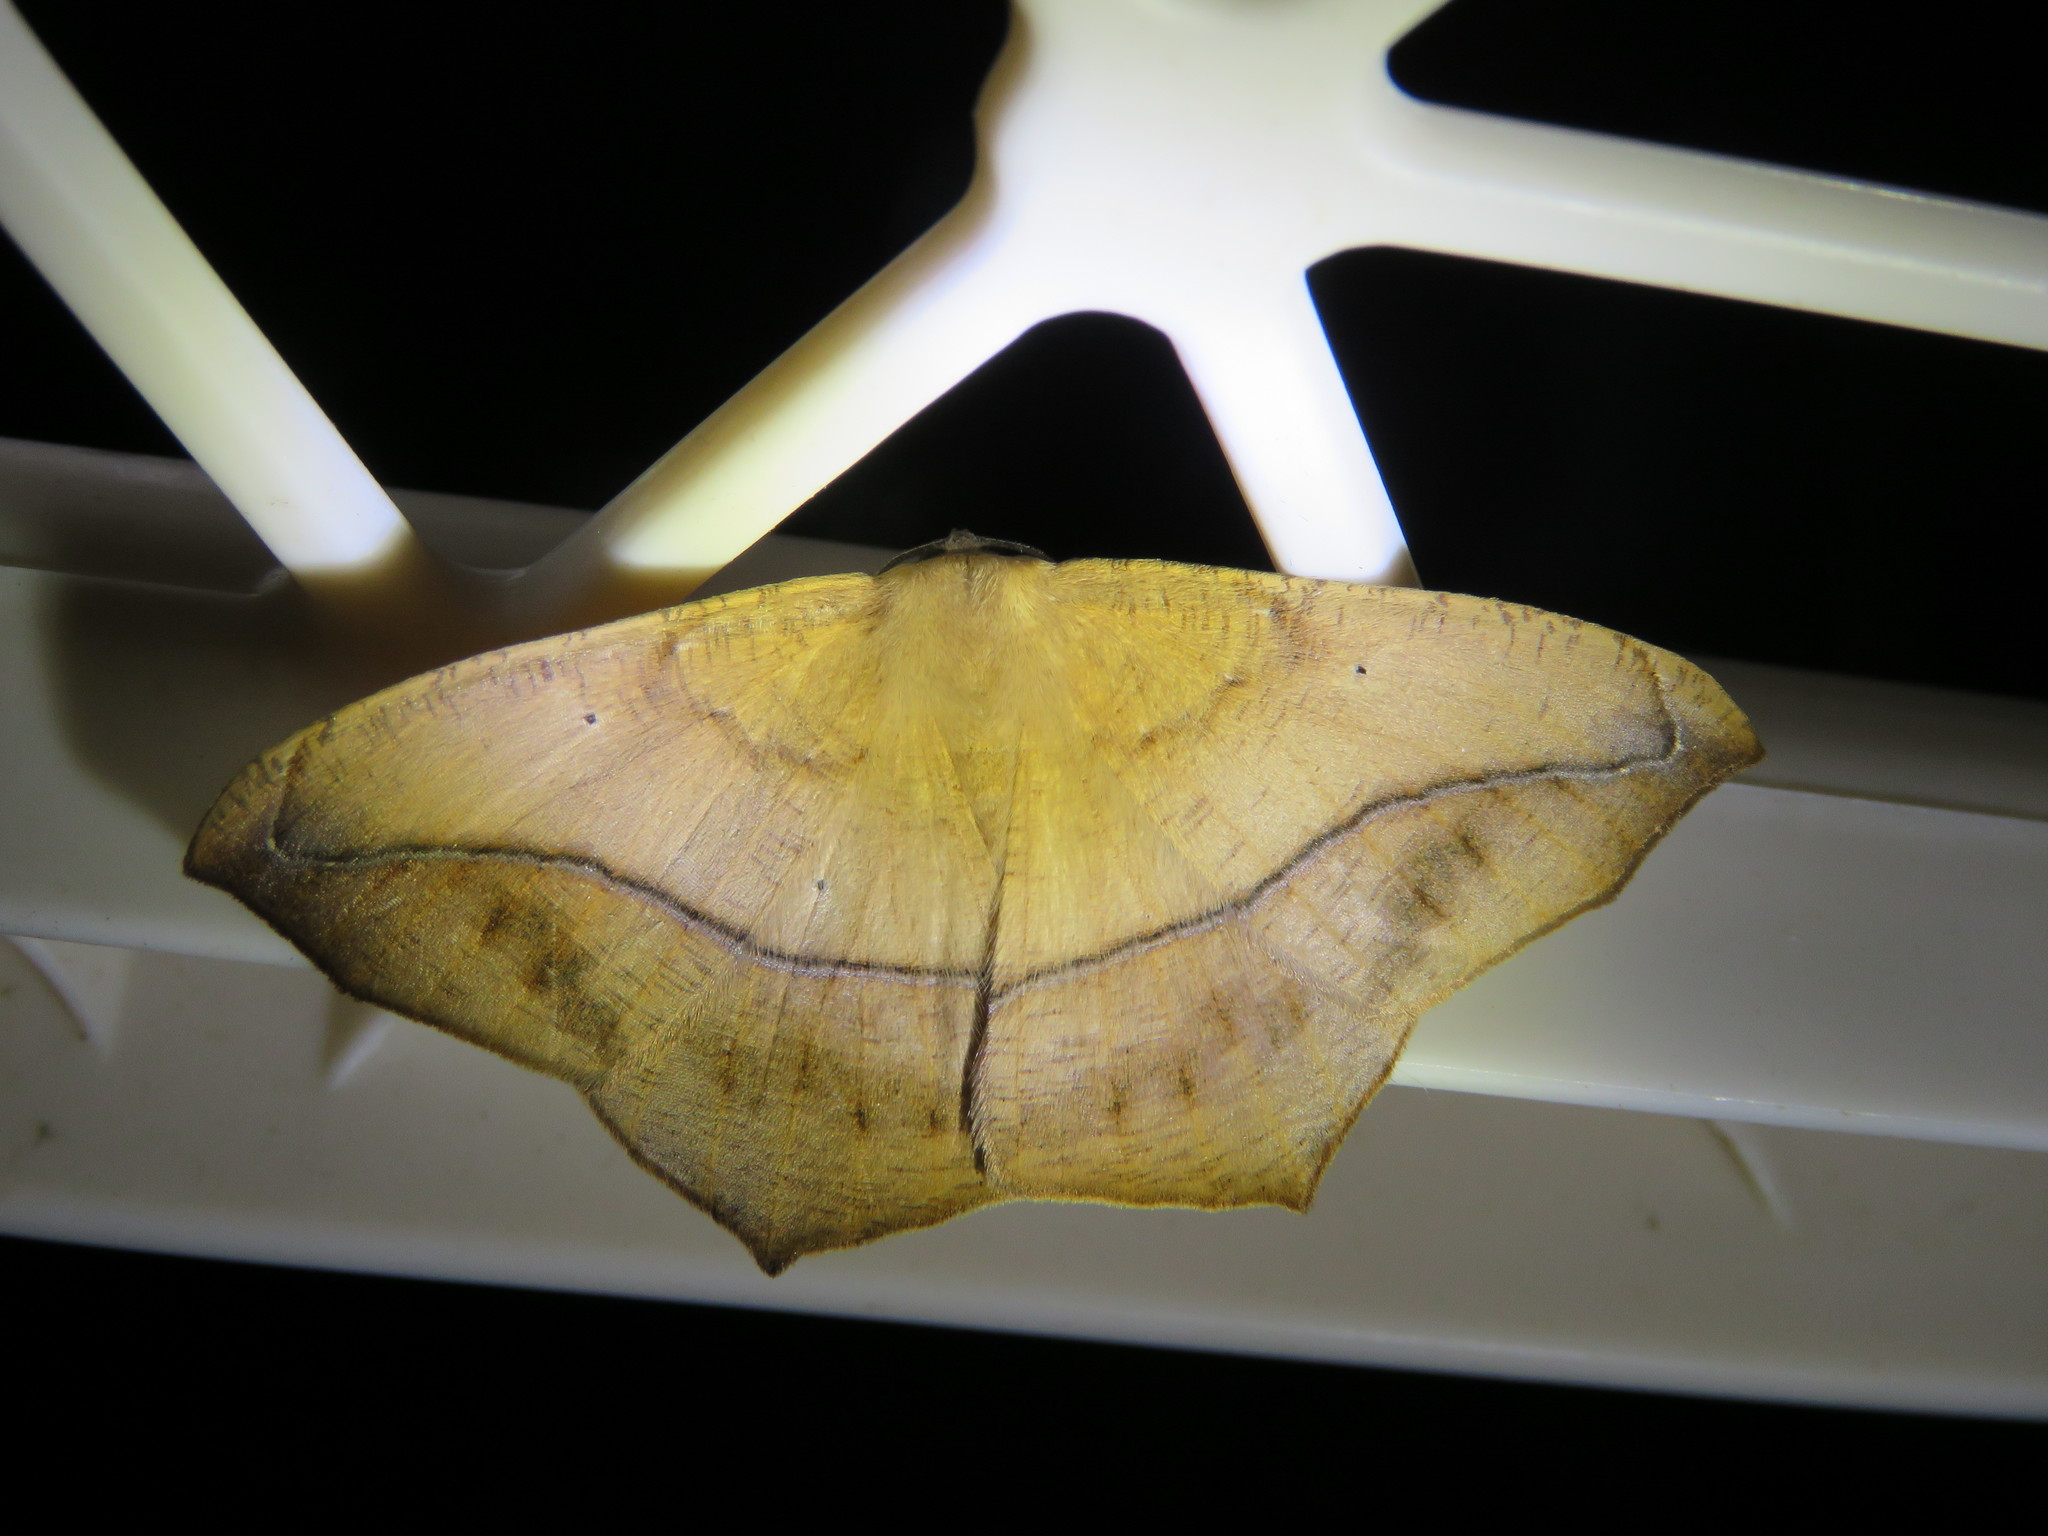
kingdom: Animalia
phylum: Arthropoda
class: Insecta
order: Lepidoptera
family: Geometridae
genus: Prochoerodes
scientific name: Prochoerodes lineola
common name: Large maple spanworm
